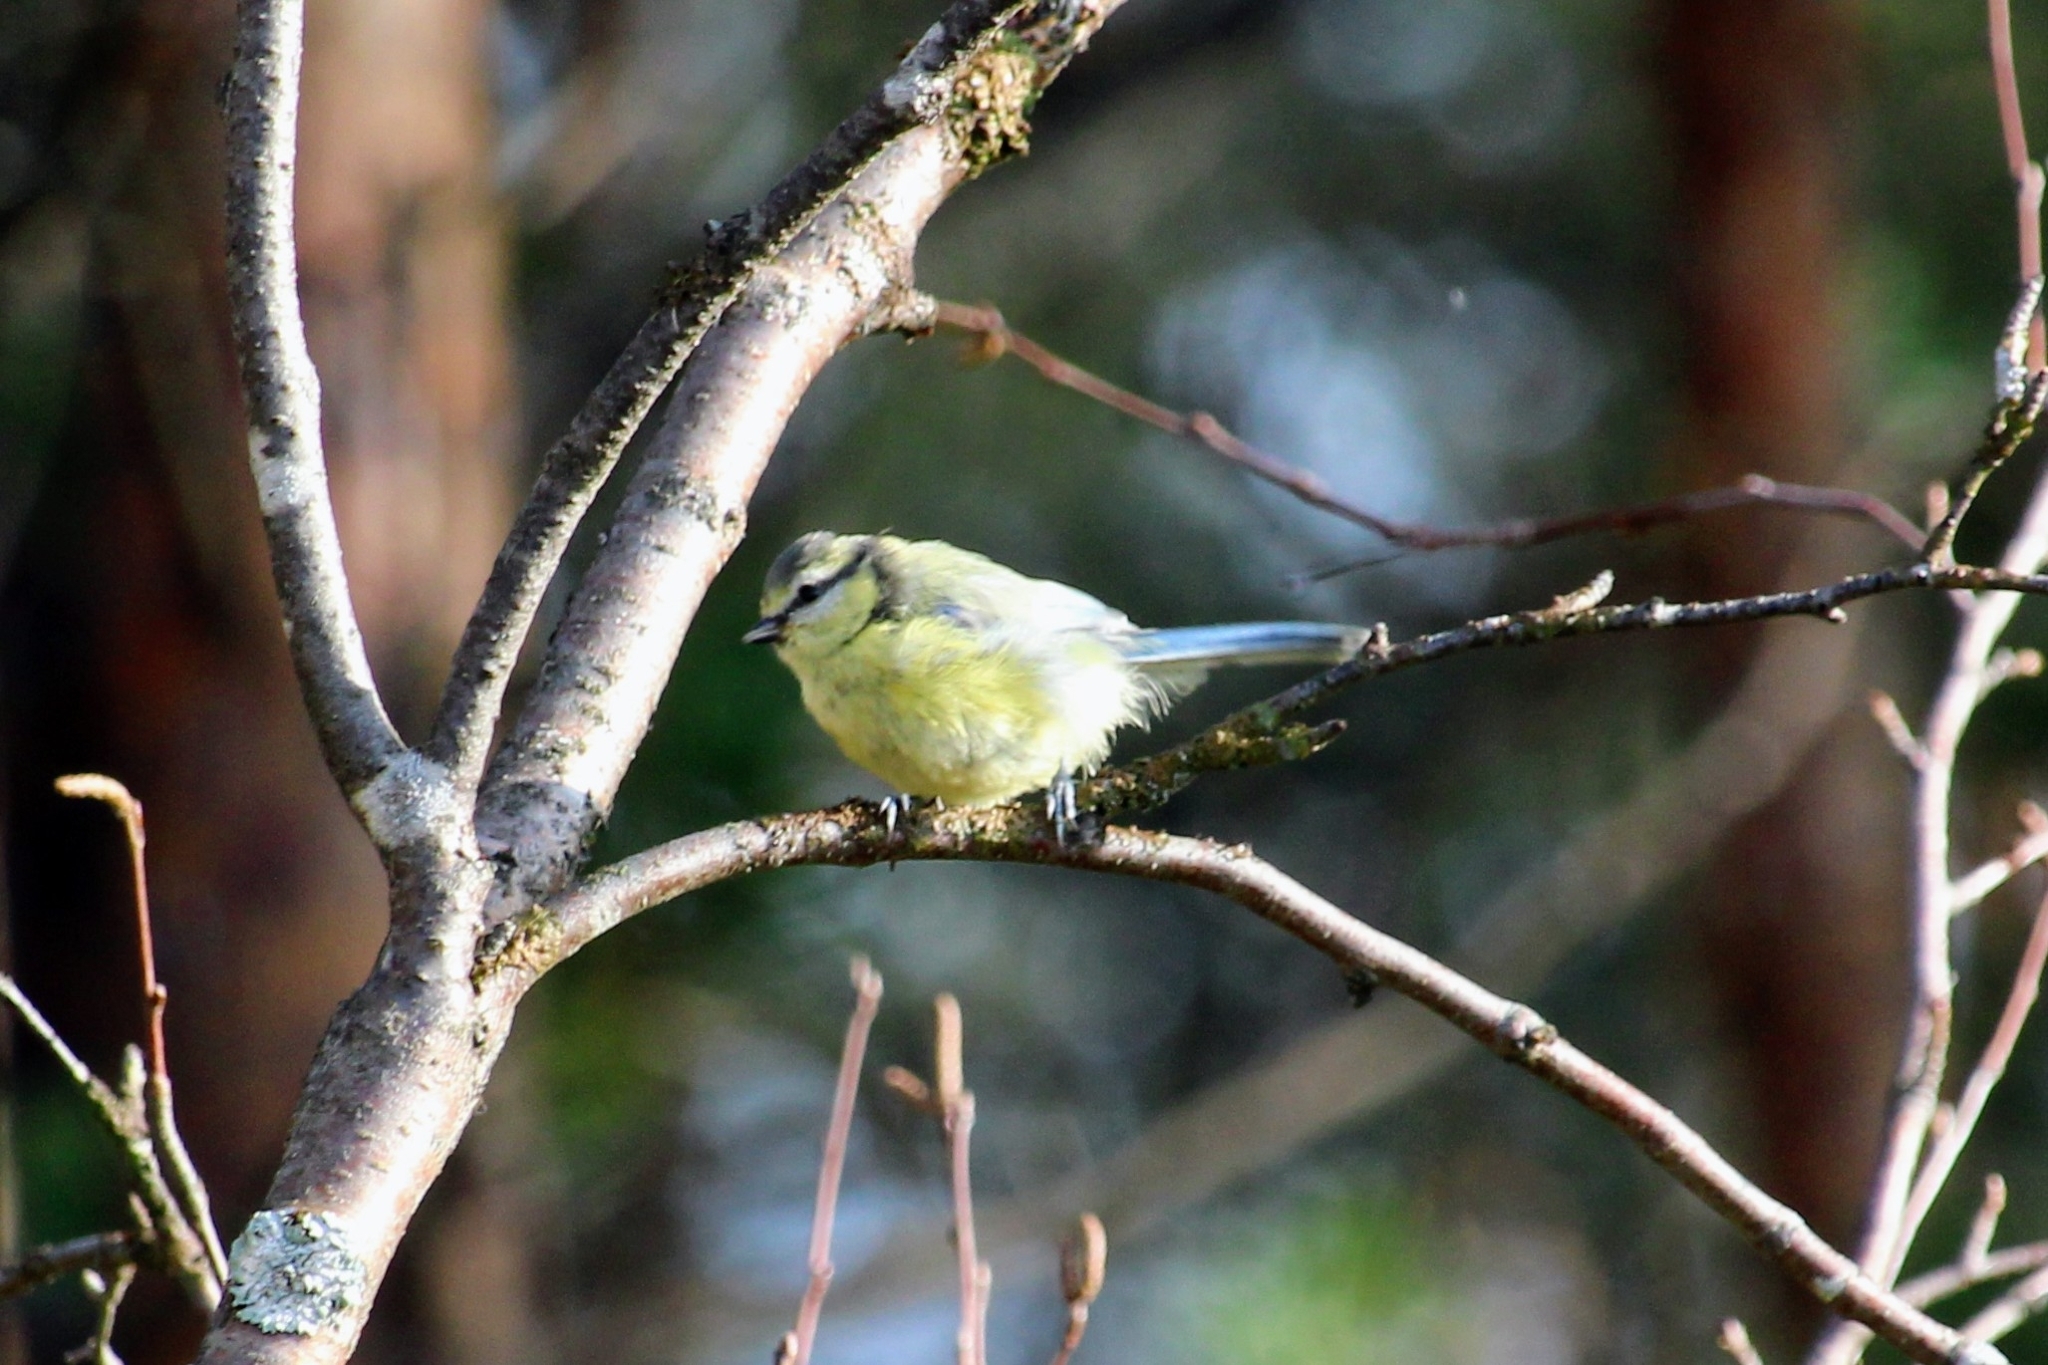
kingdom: Animalia
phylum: Chordata
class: Aves
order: Passeriformes
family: Paridae
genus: Cyanistes
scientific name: Cyanistes caeruleus
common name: Eurasian blue tit
